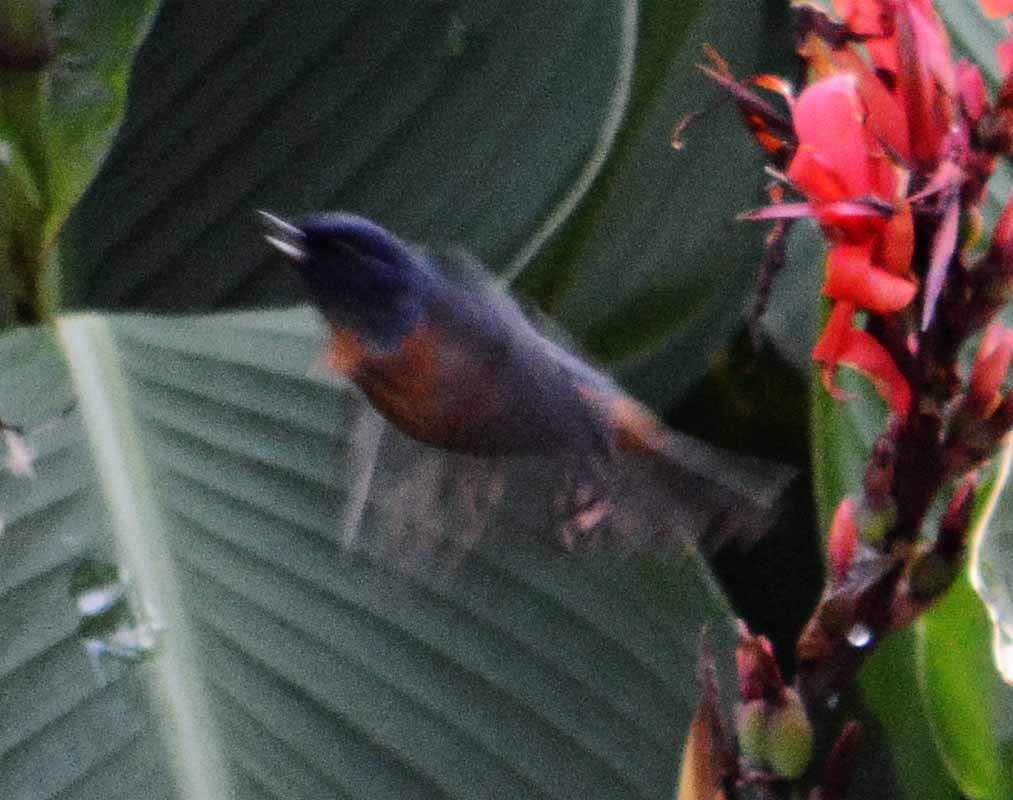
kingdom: Animalia
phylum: Chordata
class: Aves
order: Passeriformes
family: Thraupidae
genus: Diglossa
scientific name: Diglossa baritula
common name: Cinnamon-bellied flowerpiercer
